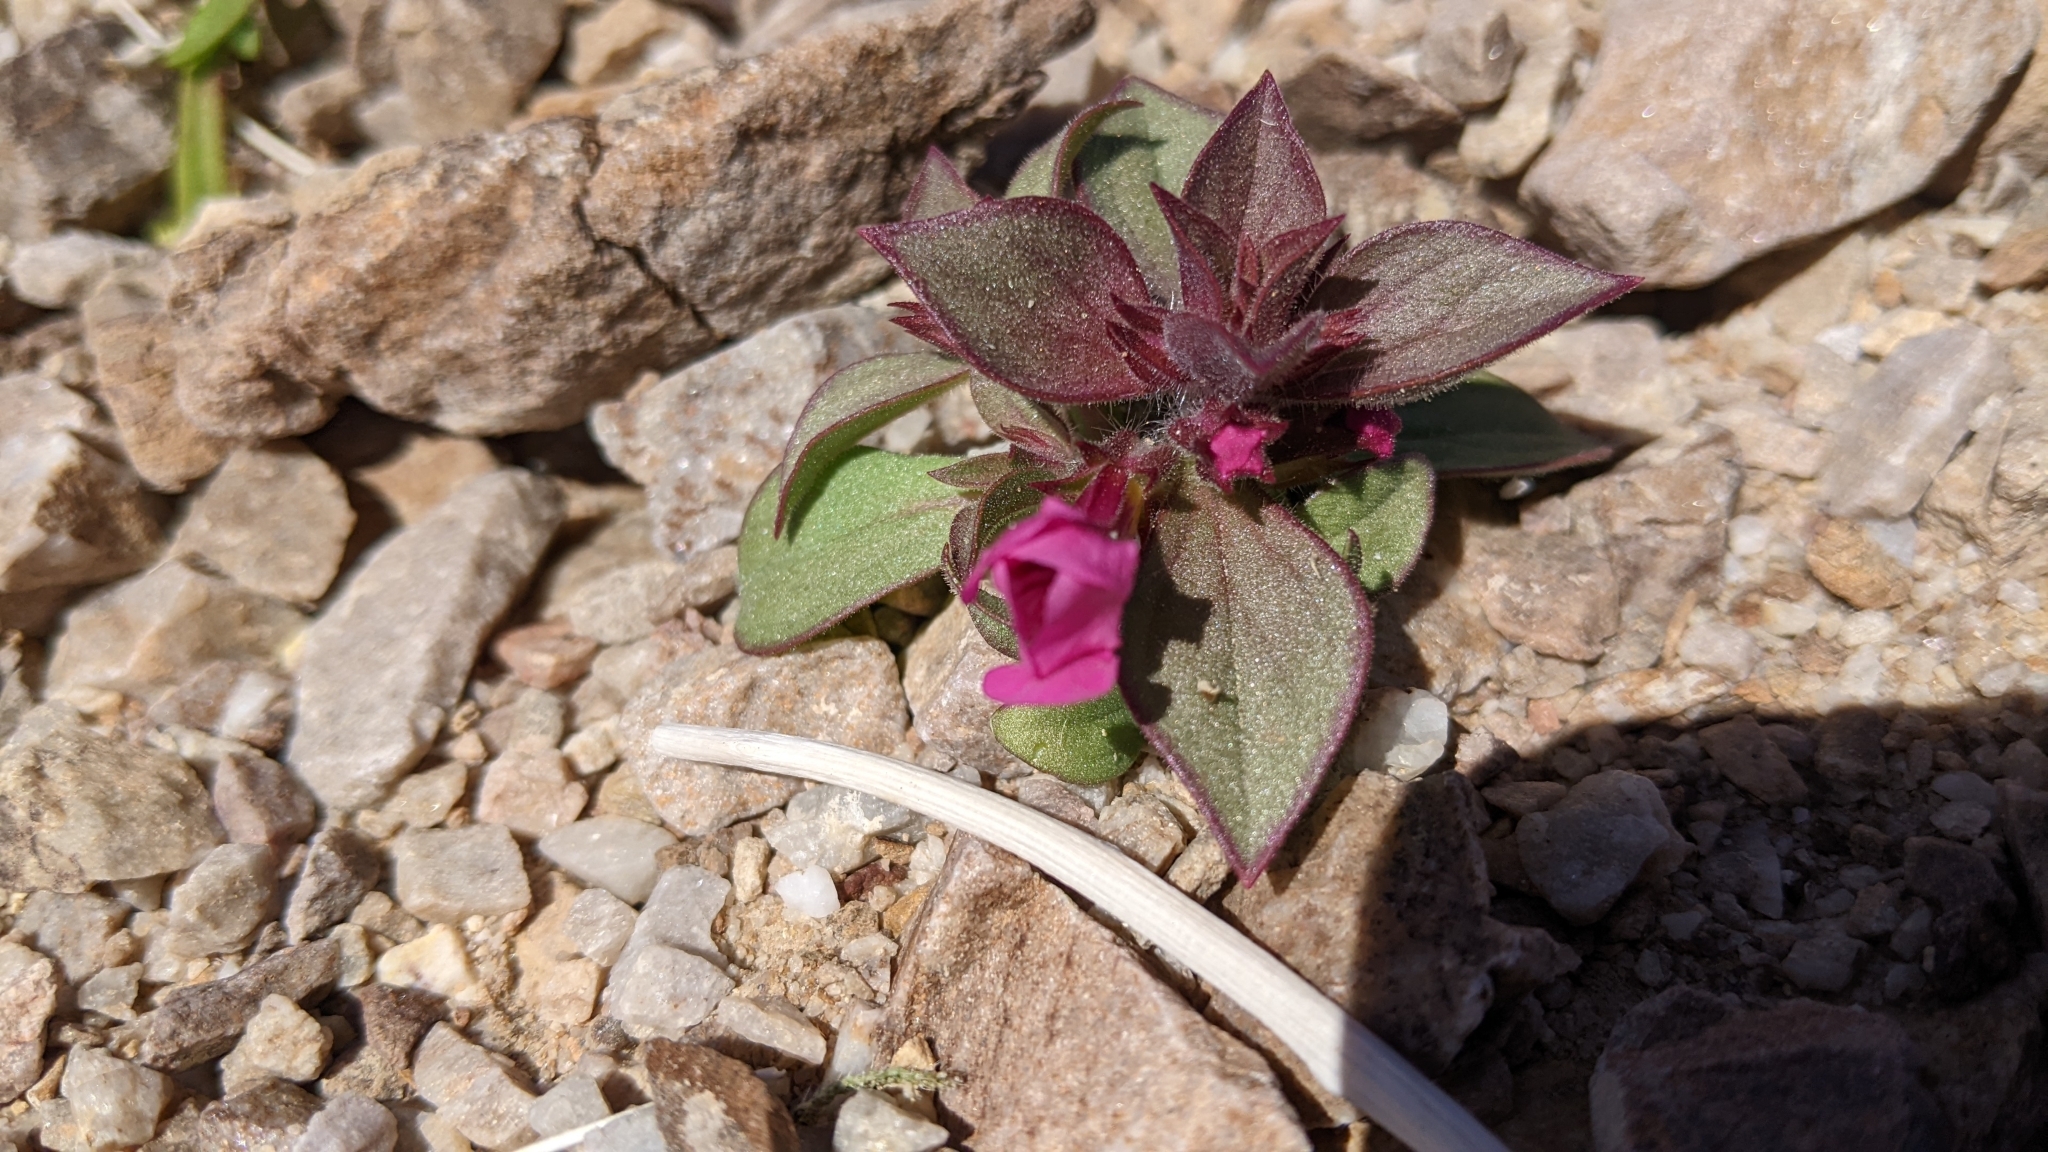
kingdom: Plantae
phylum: Tracheophyta
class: Magnoliopsida
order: Lamiales
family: Phrymaceae
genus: Diplacus
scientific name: Diplacus bigelovii
